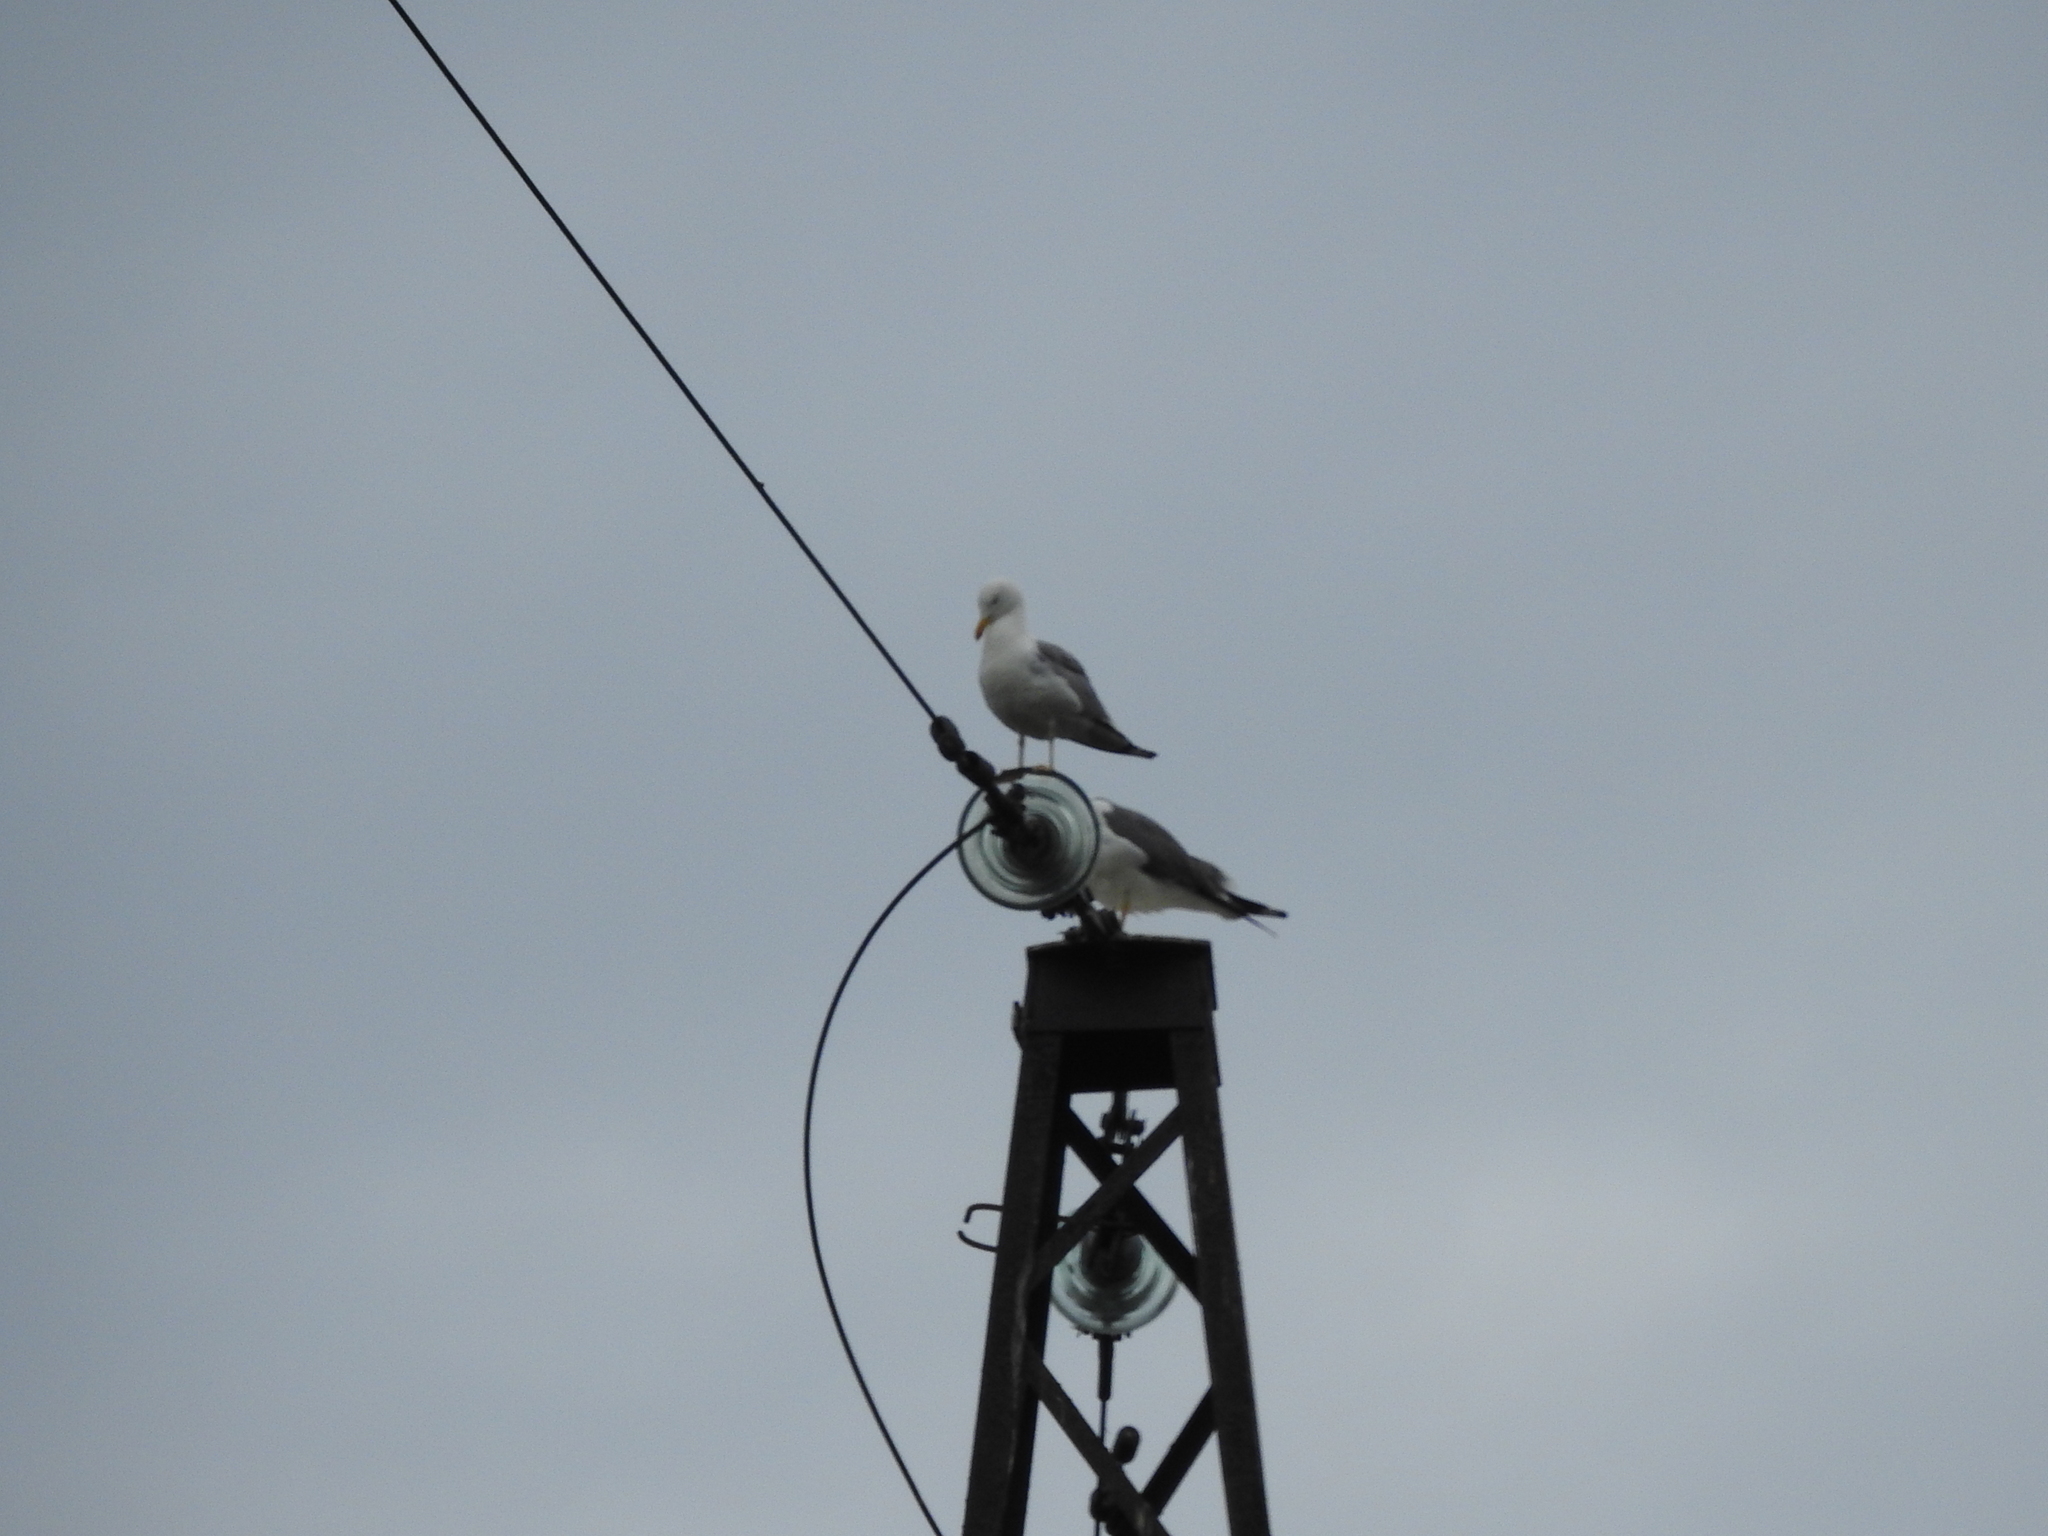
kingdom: Animalia
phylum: Chordata
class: Aves
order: Charadriiformes
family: Laridae
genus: Larus
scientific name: Larus fuscus
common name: Lesser black-backed gull
